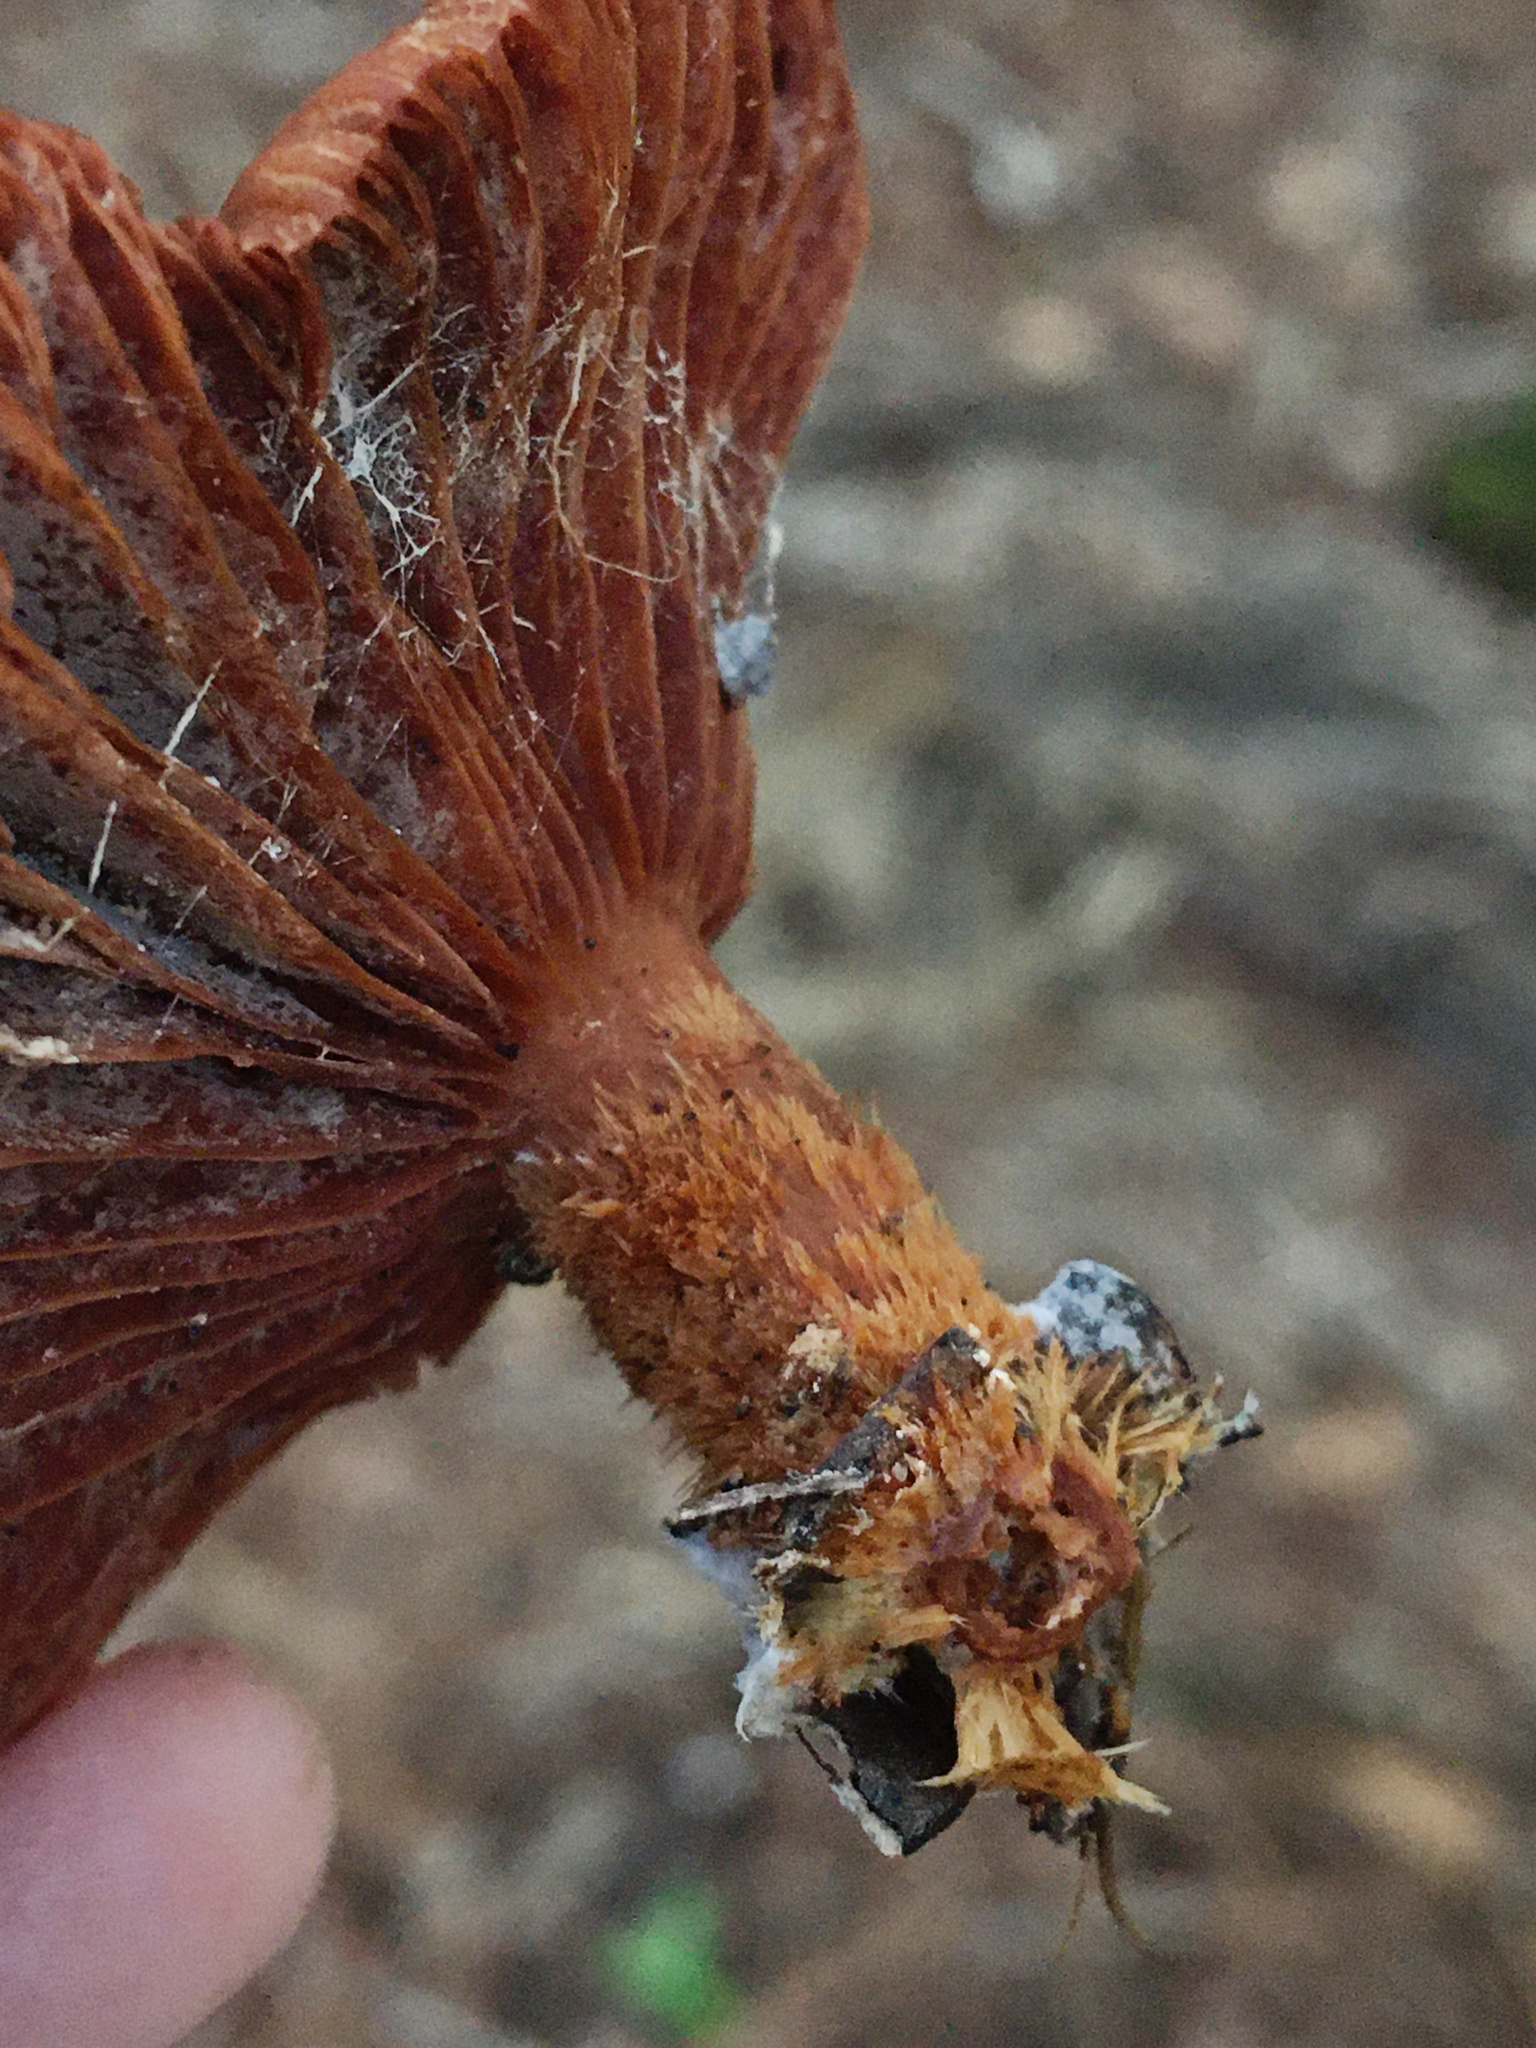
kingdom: Fungi
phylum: Basidiomycota
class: Agaricomycetes
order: Russulales
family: Russulaceae
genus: Lactarius
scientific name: Lactarius subserifluus
